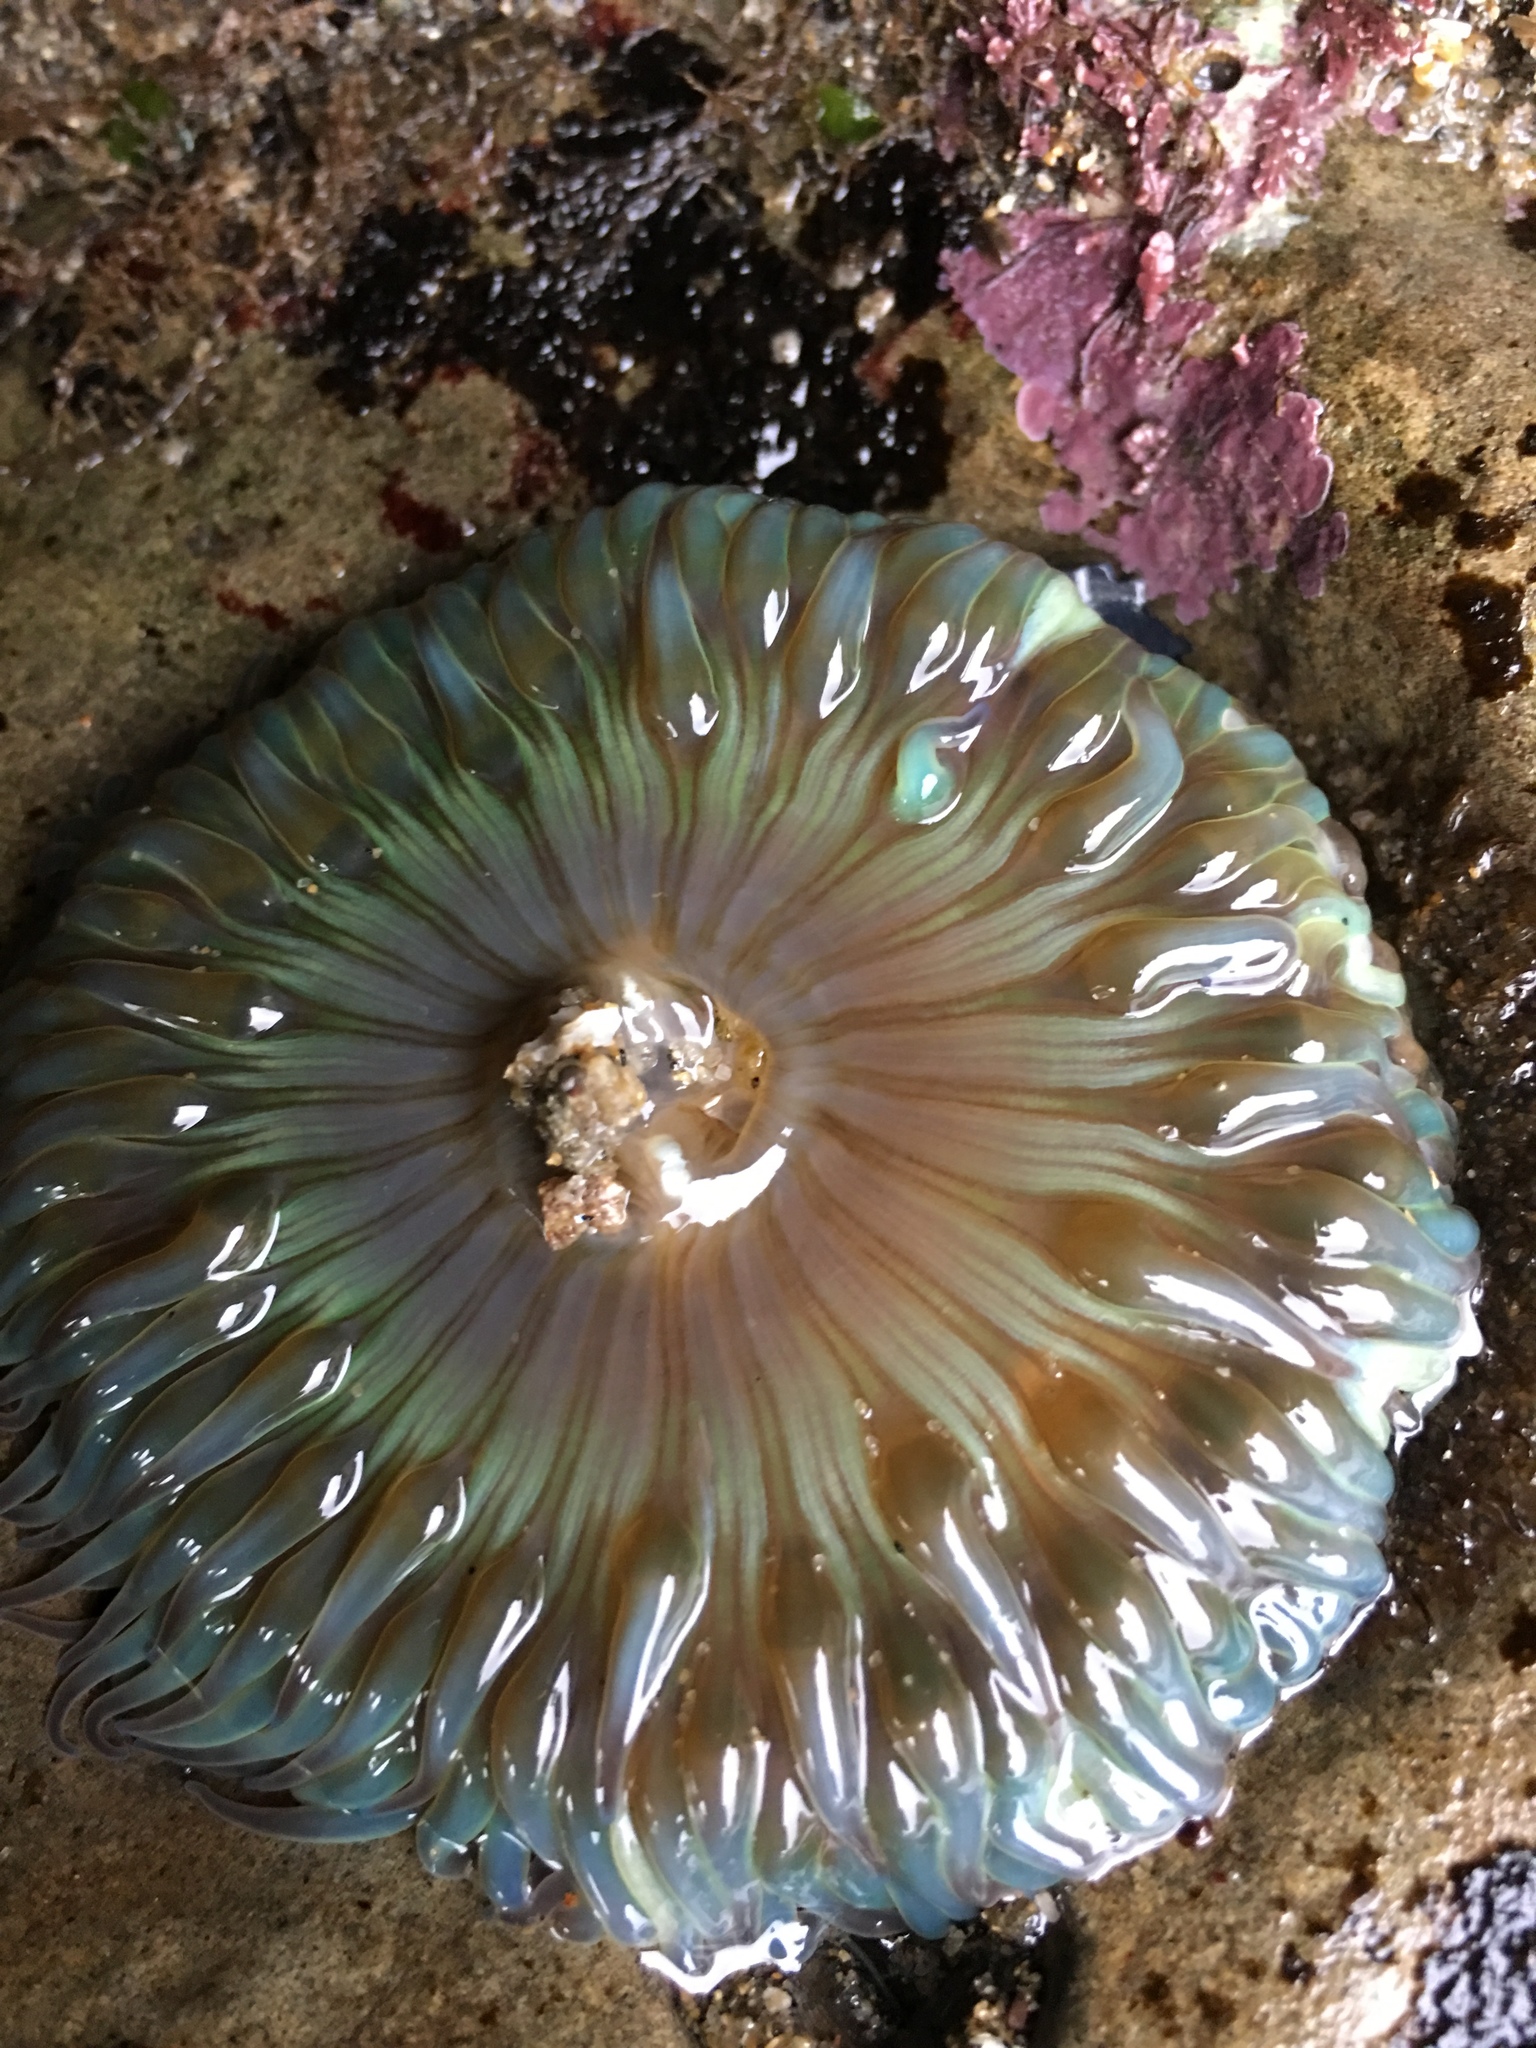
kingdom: Animalia
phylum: Cnidaria
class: Anthozoa
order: Actiniaria
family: Actiniidae
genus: Anthopleura
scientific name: Anthopleura sola
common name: Sun anemone
